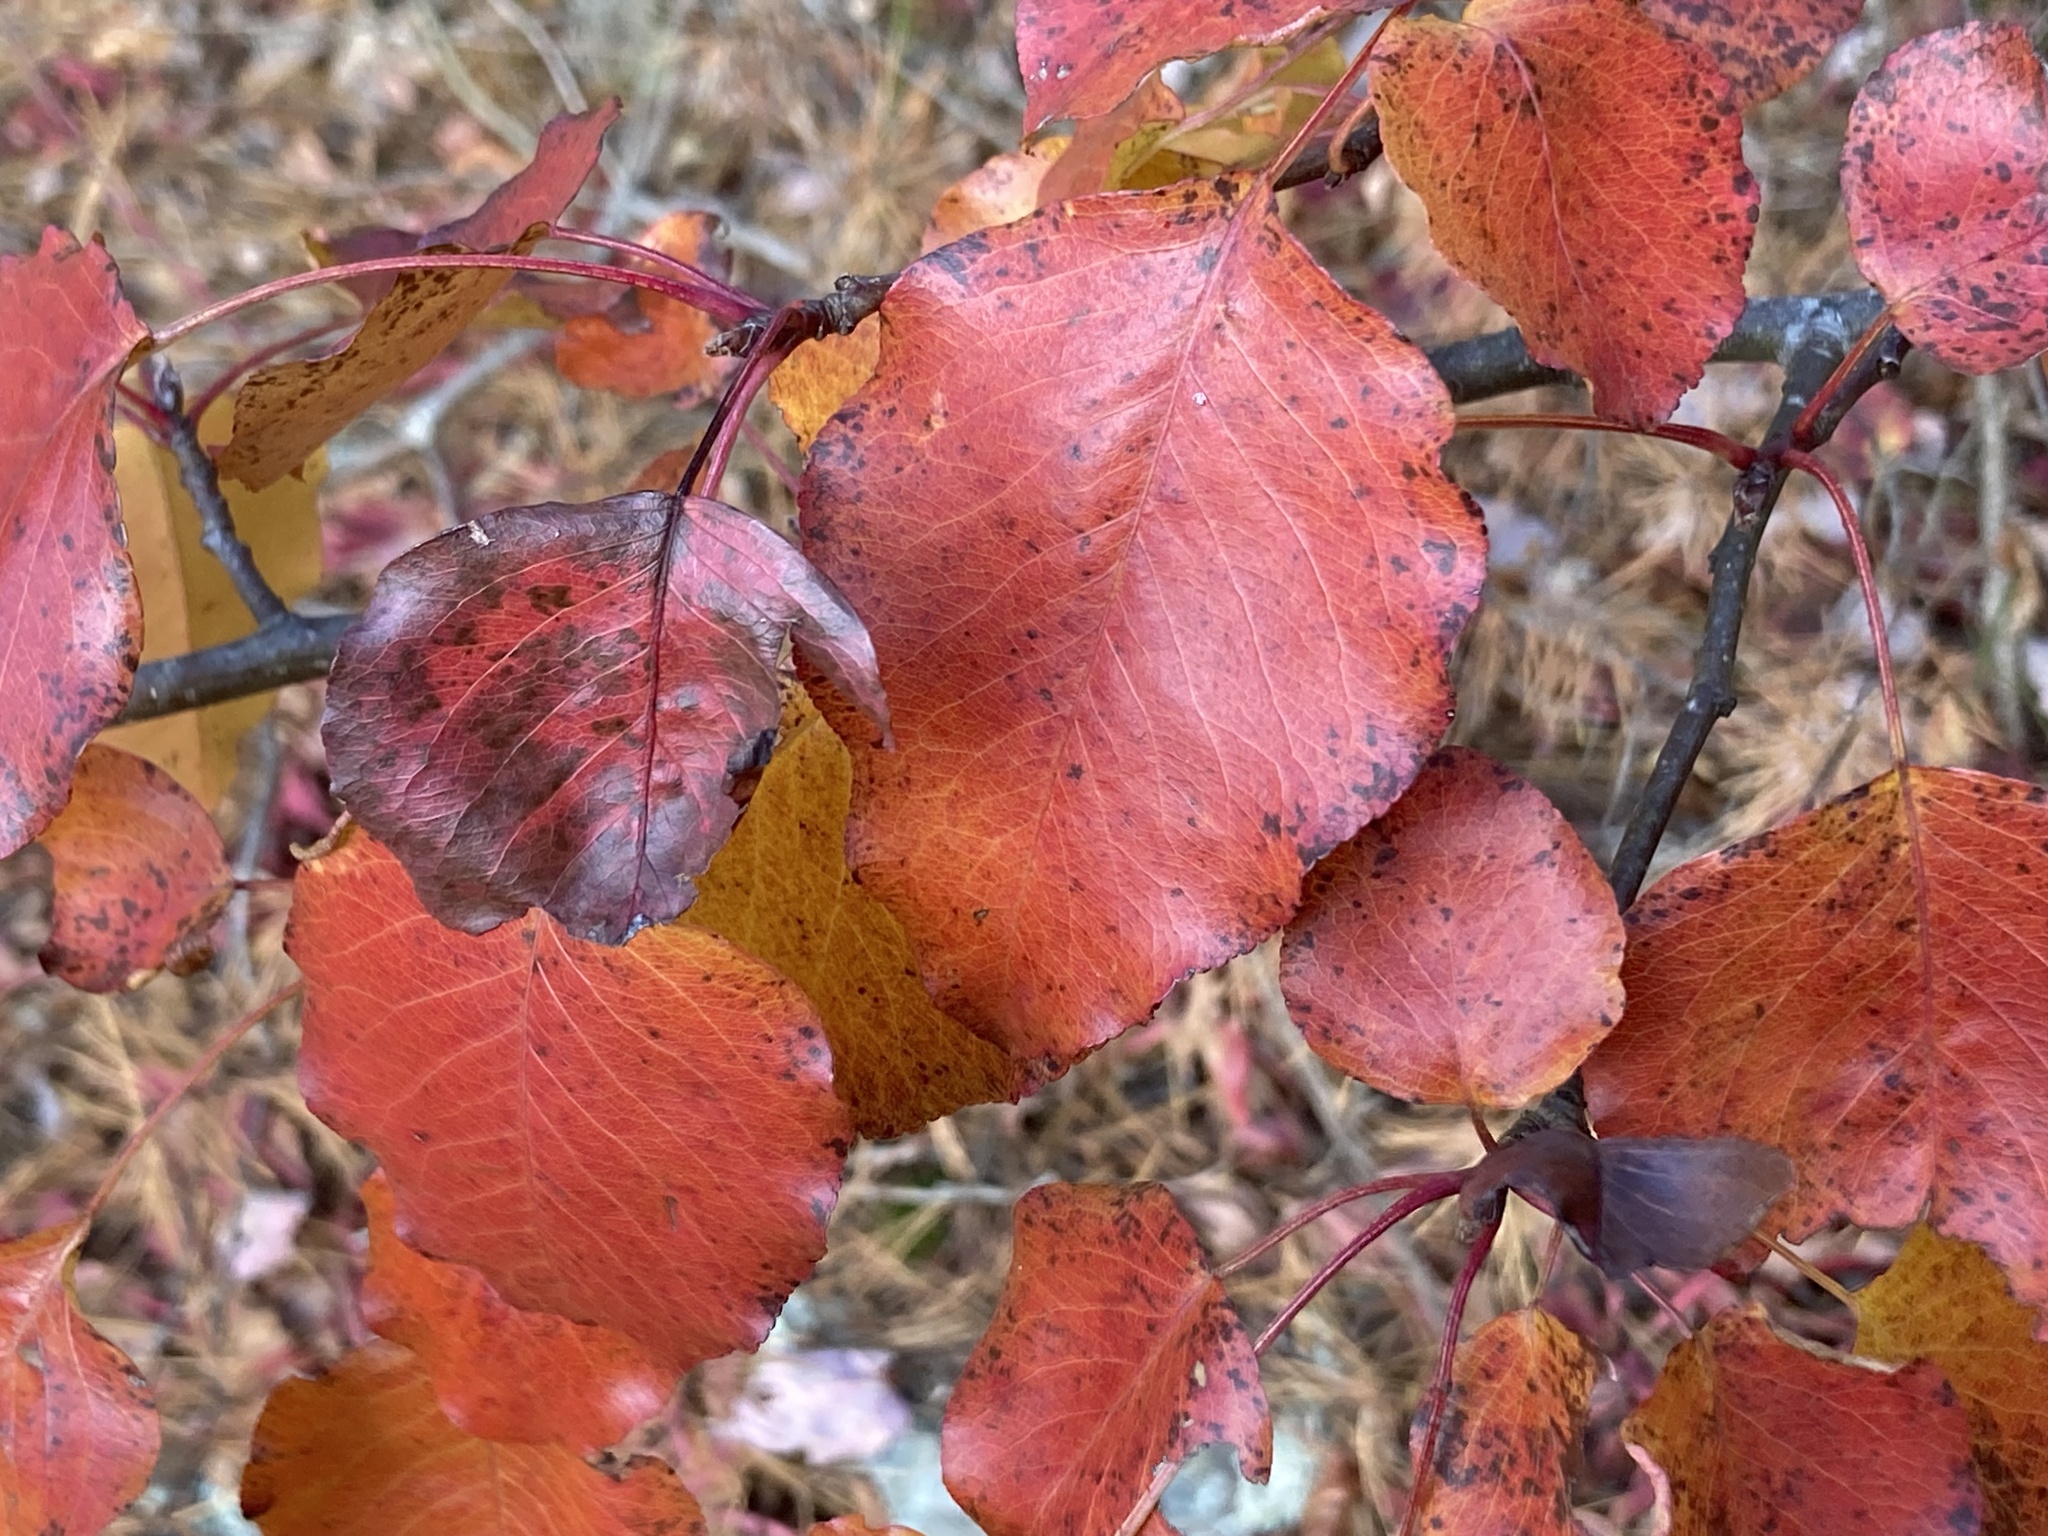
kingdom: Plantae
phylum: Tracheophyta
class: Magnoliopsida
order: Rosales
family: Rosaceae
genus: Pyrus
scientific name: Pyrus calleryana
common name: Callery pear
